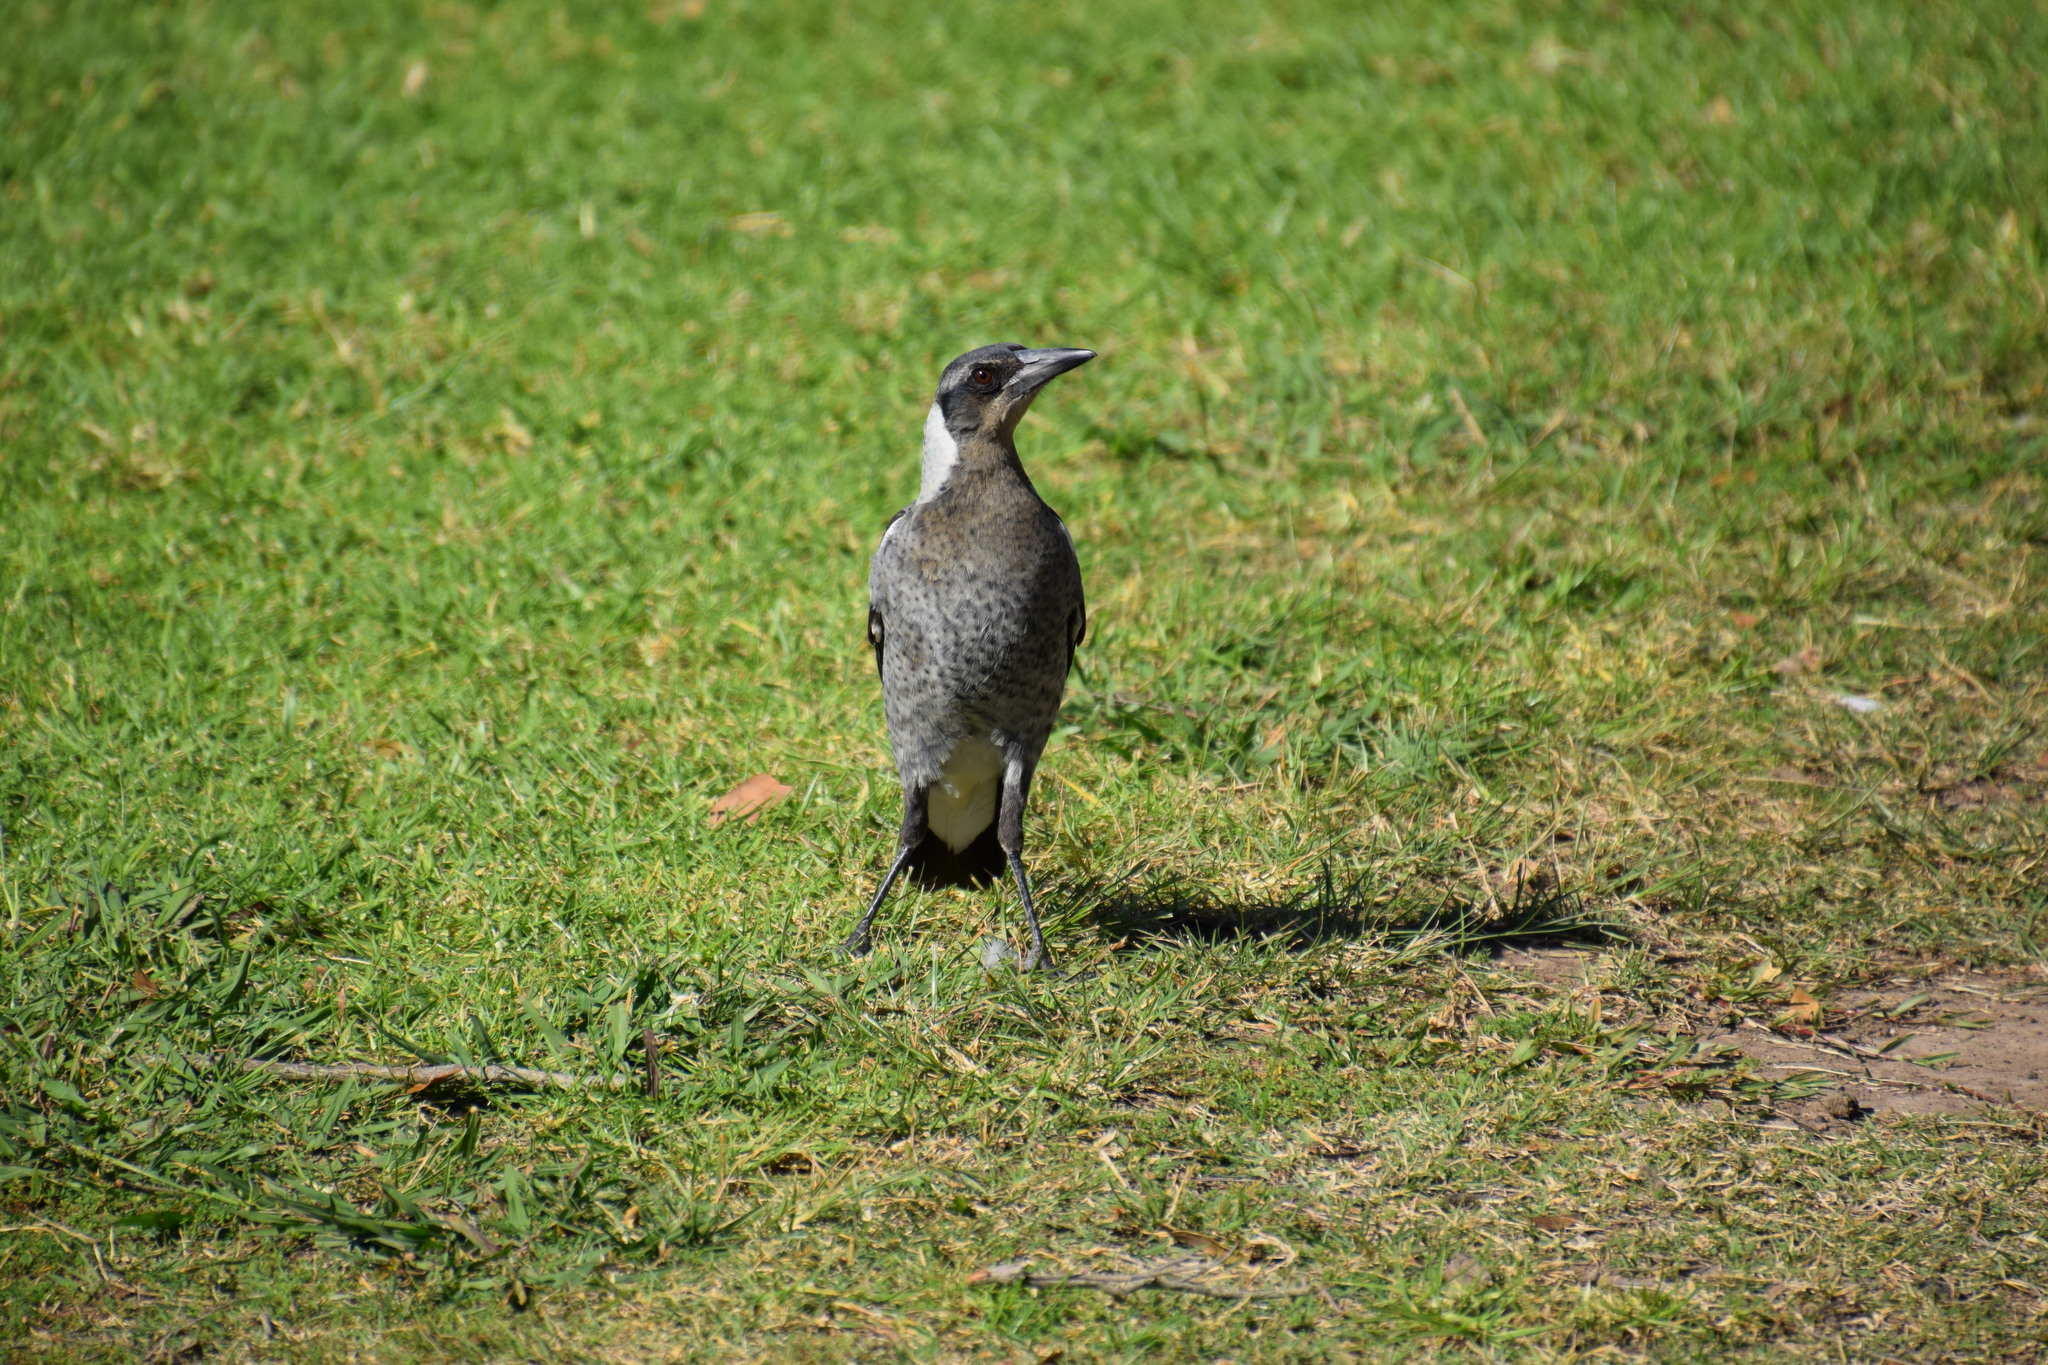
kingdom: Animalia
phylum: Chordata
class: Aves
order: Passeriformes
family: Cracticidae
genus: Gymnorhina
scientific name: Gymnorhina tibicen
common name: Australian magpie
